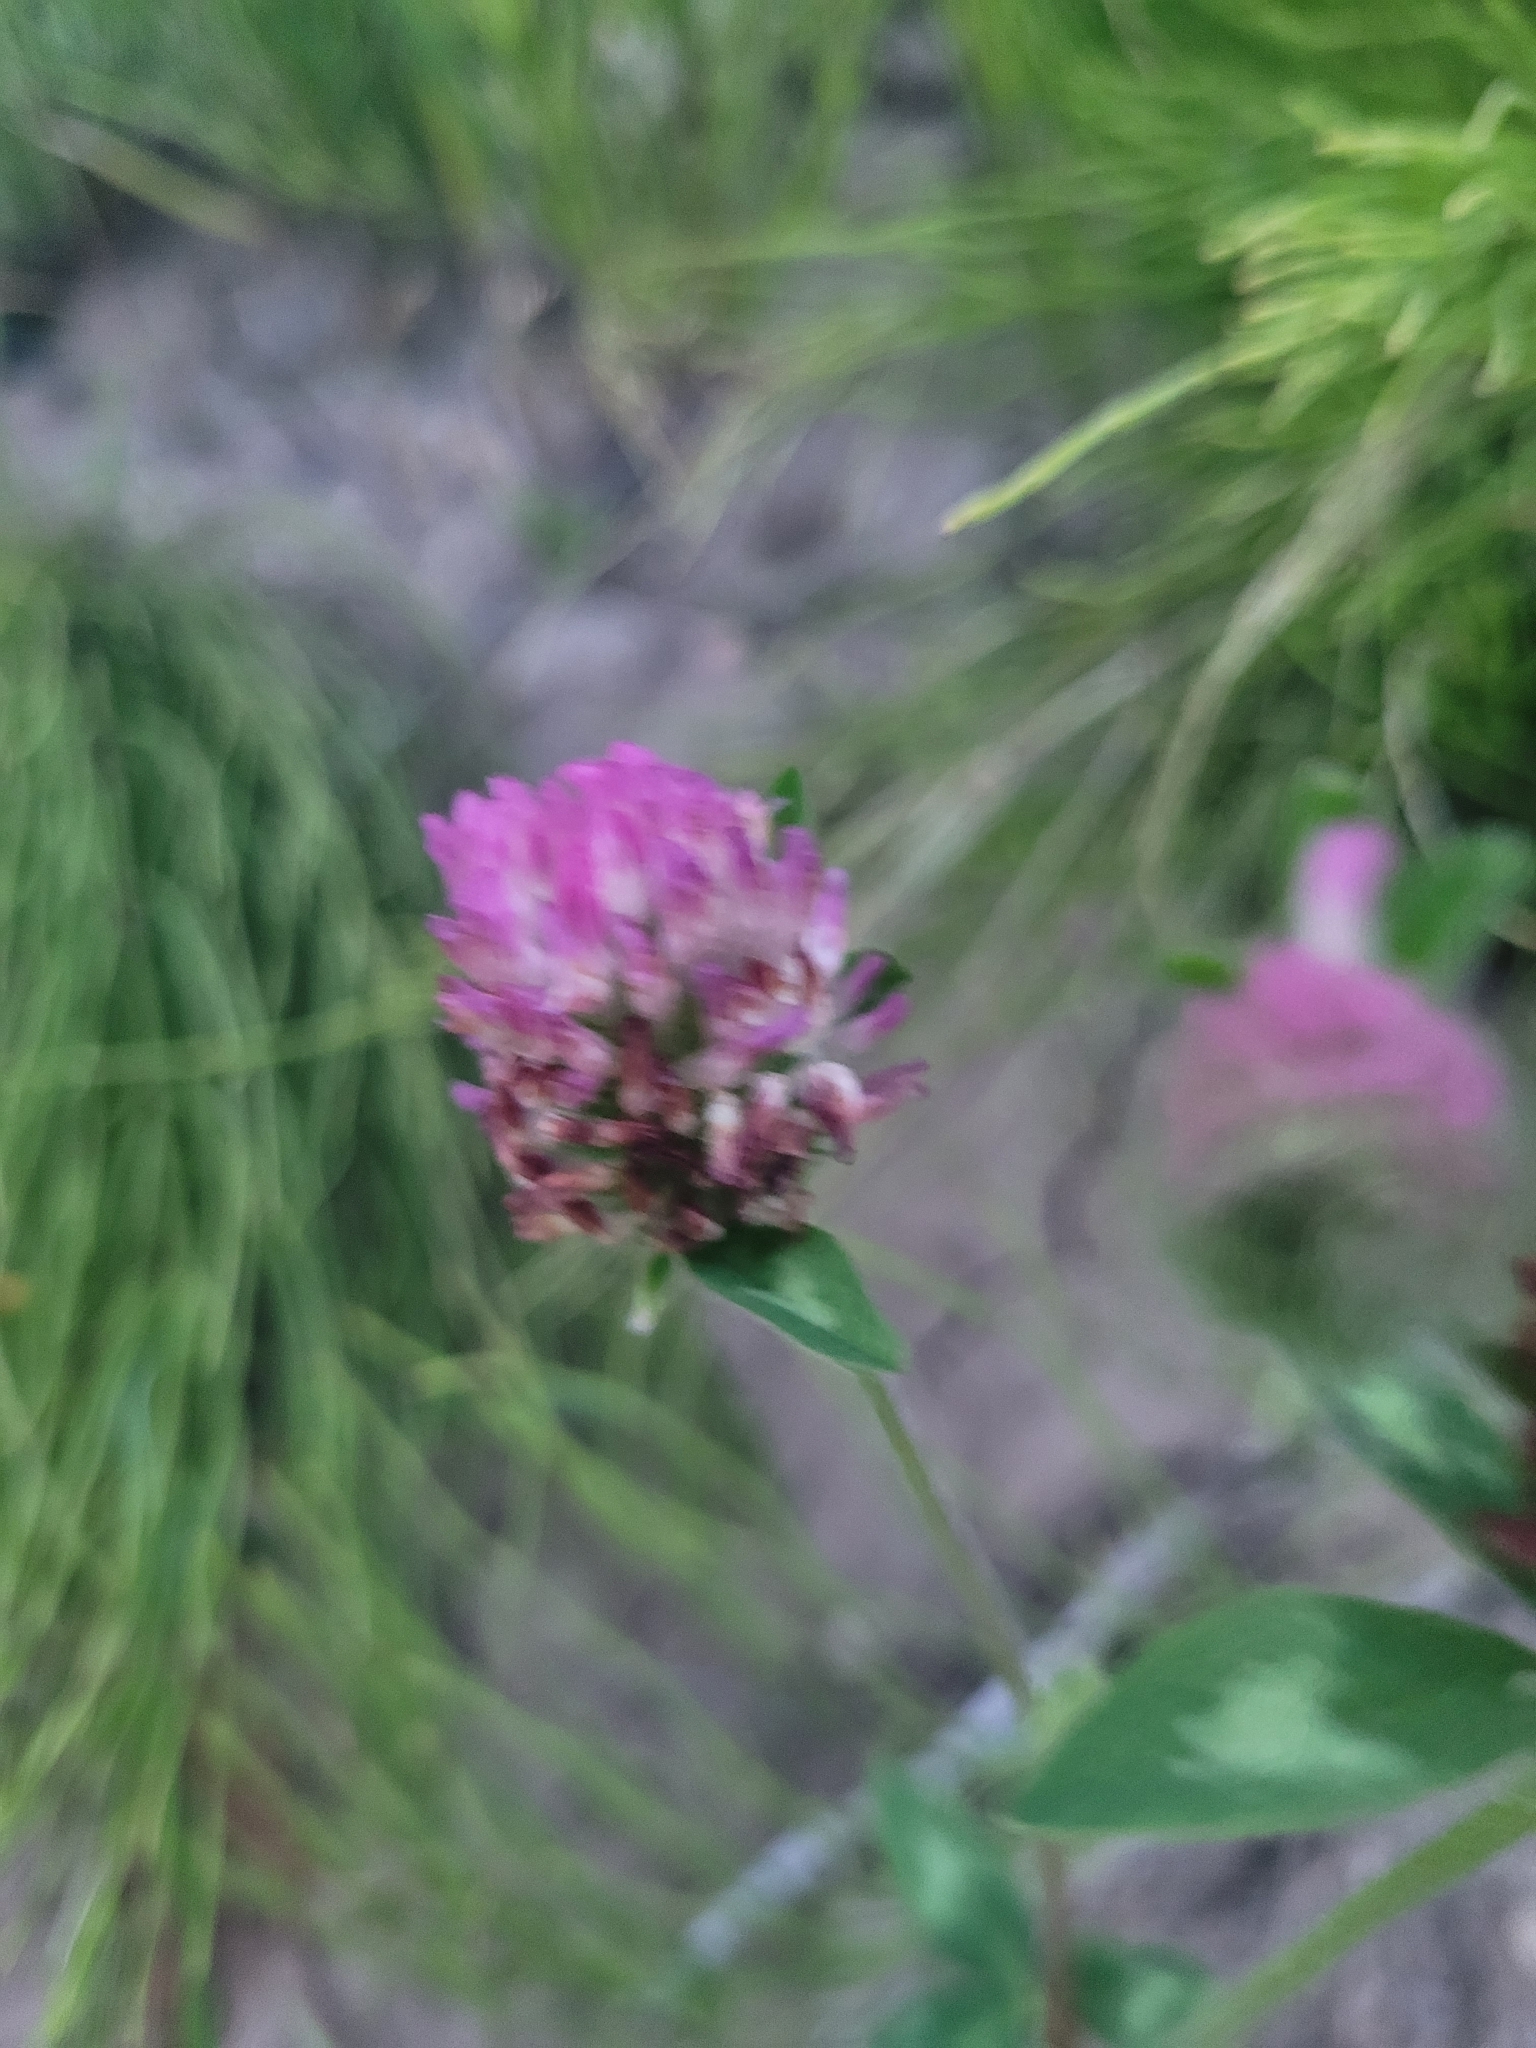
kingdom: Plantae
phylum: Tracheophyta
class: Magnoliopsida
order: Fabales
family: Fabaceae
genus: Trifolium
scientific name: Trifolium pratense
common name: Red clover
